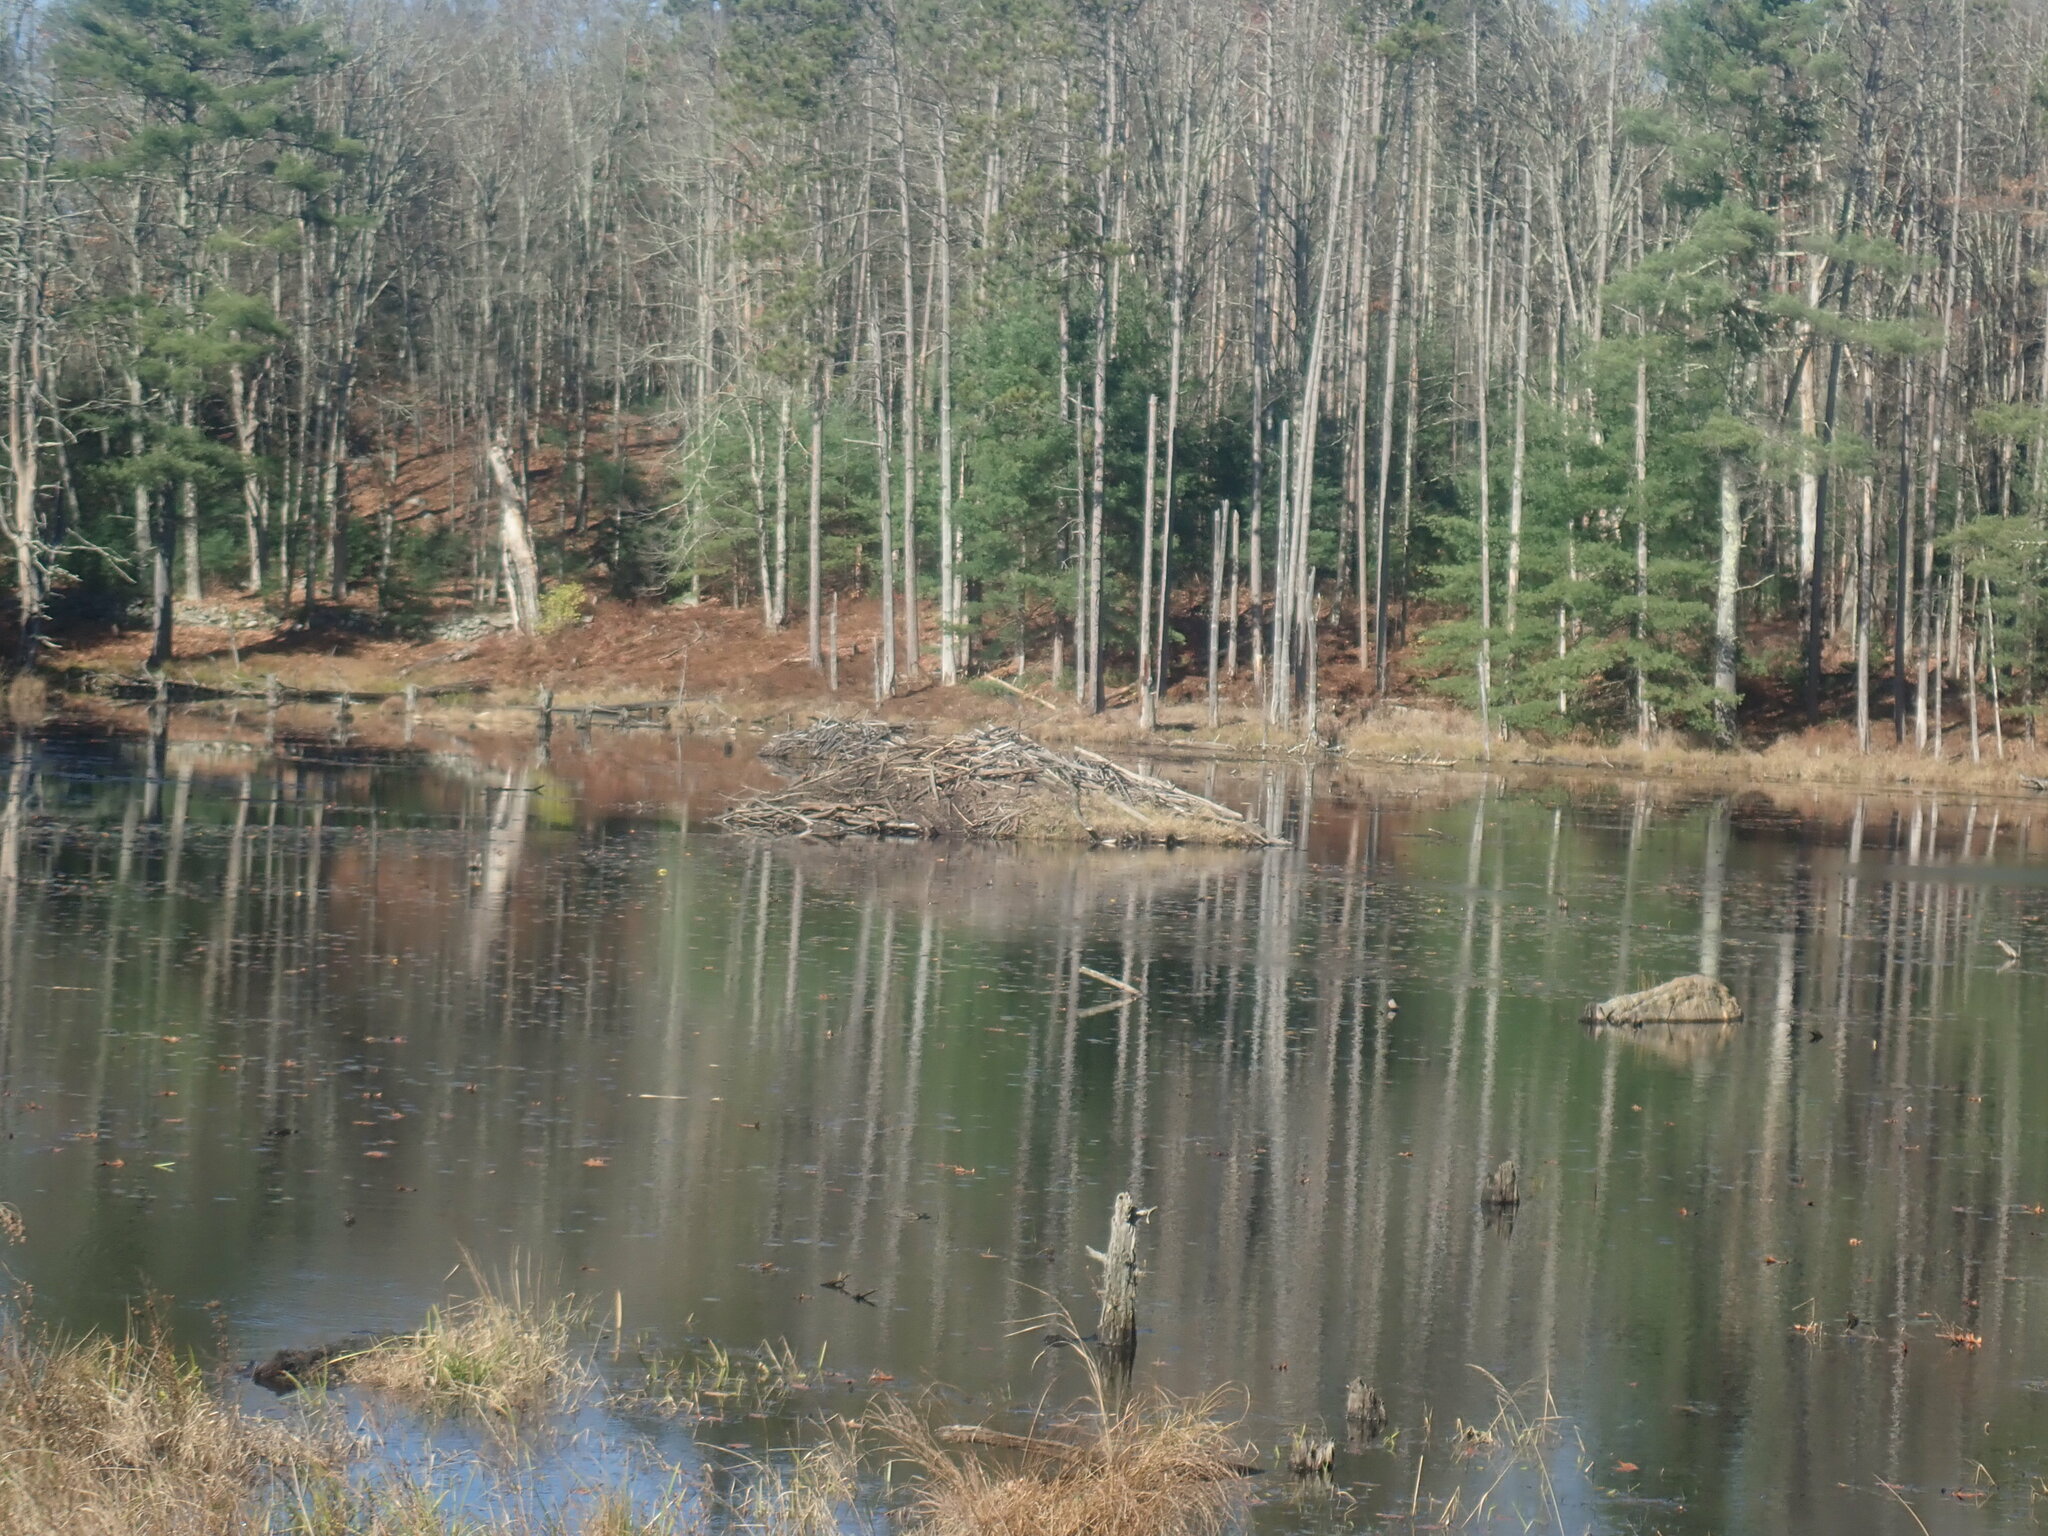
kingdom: Animalia
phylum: Chordata
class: Mammalia
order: Rodentia
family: Castoridae
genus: Castor
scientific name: Castor canadensis
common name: American beaver
